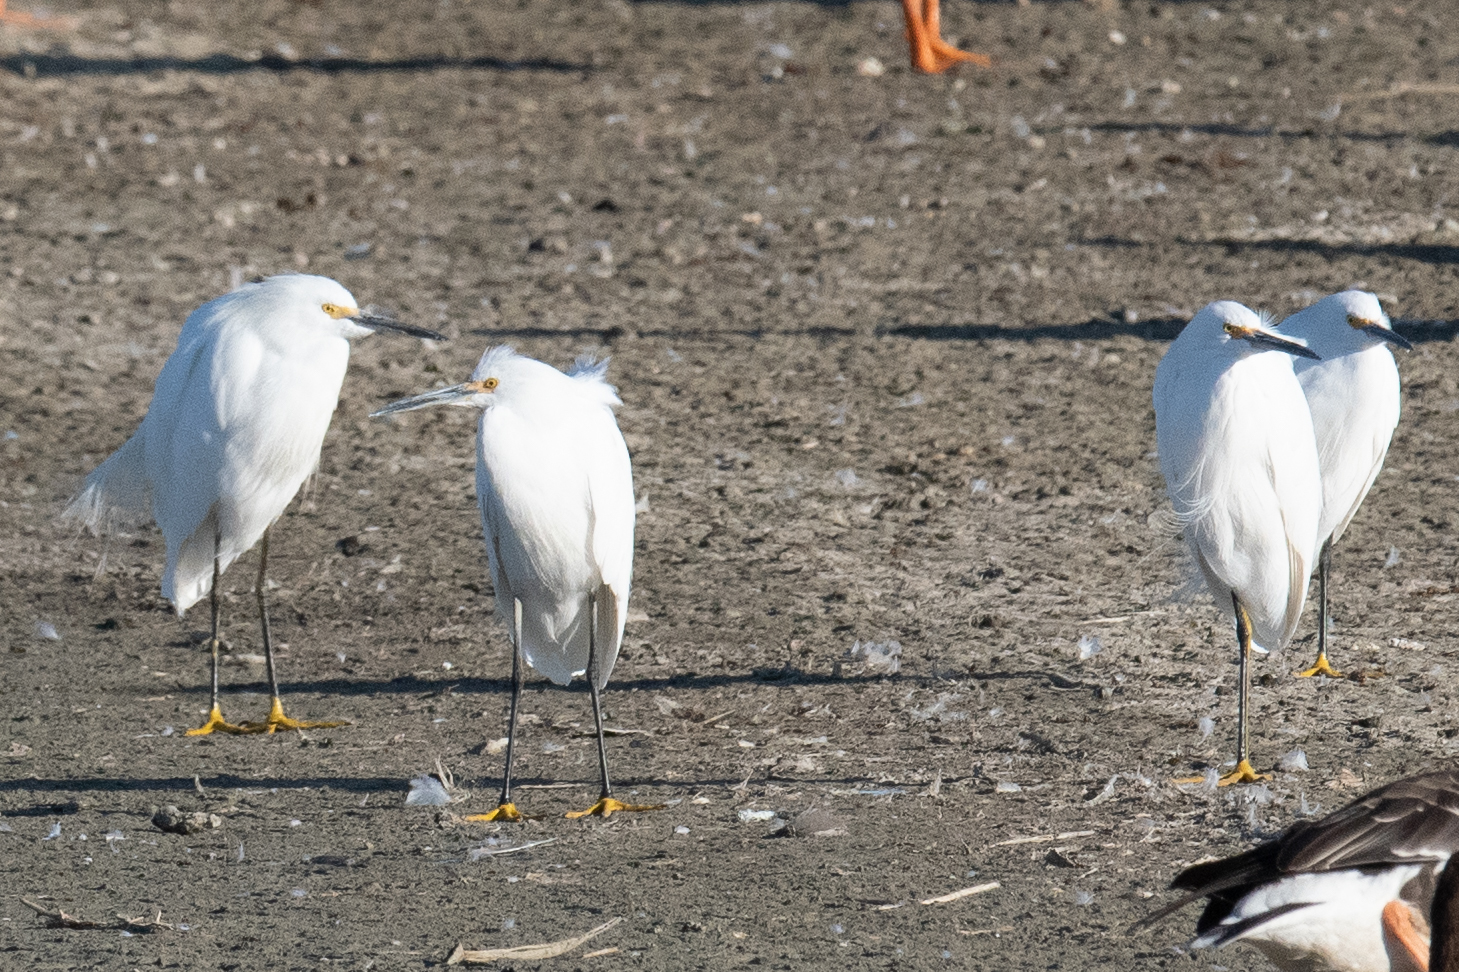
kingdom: Animalia
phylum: Chordata
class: Aves
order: Pelecaniformes
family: Ardeidae
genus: Egretta
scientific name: Egretta thula
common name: Snowy egret
